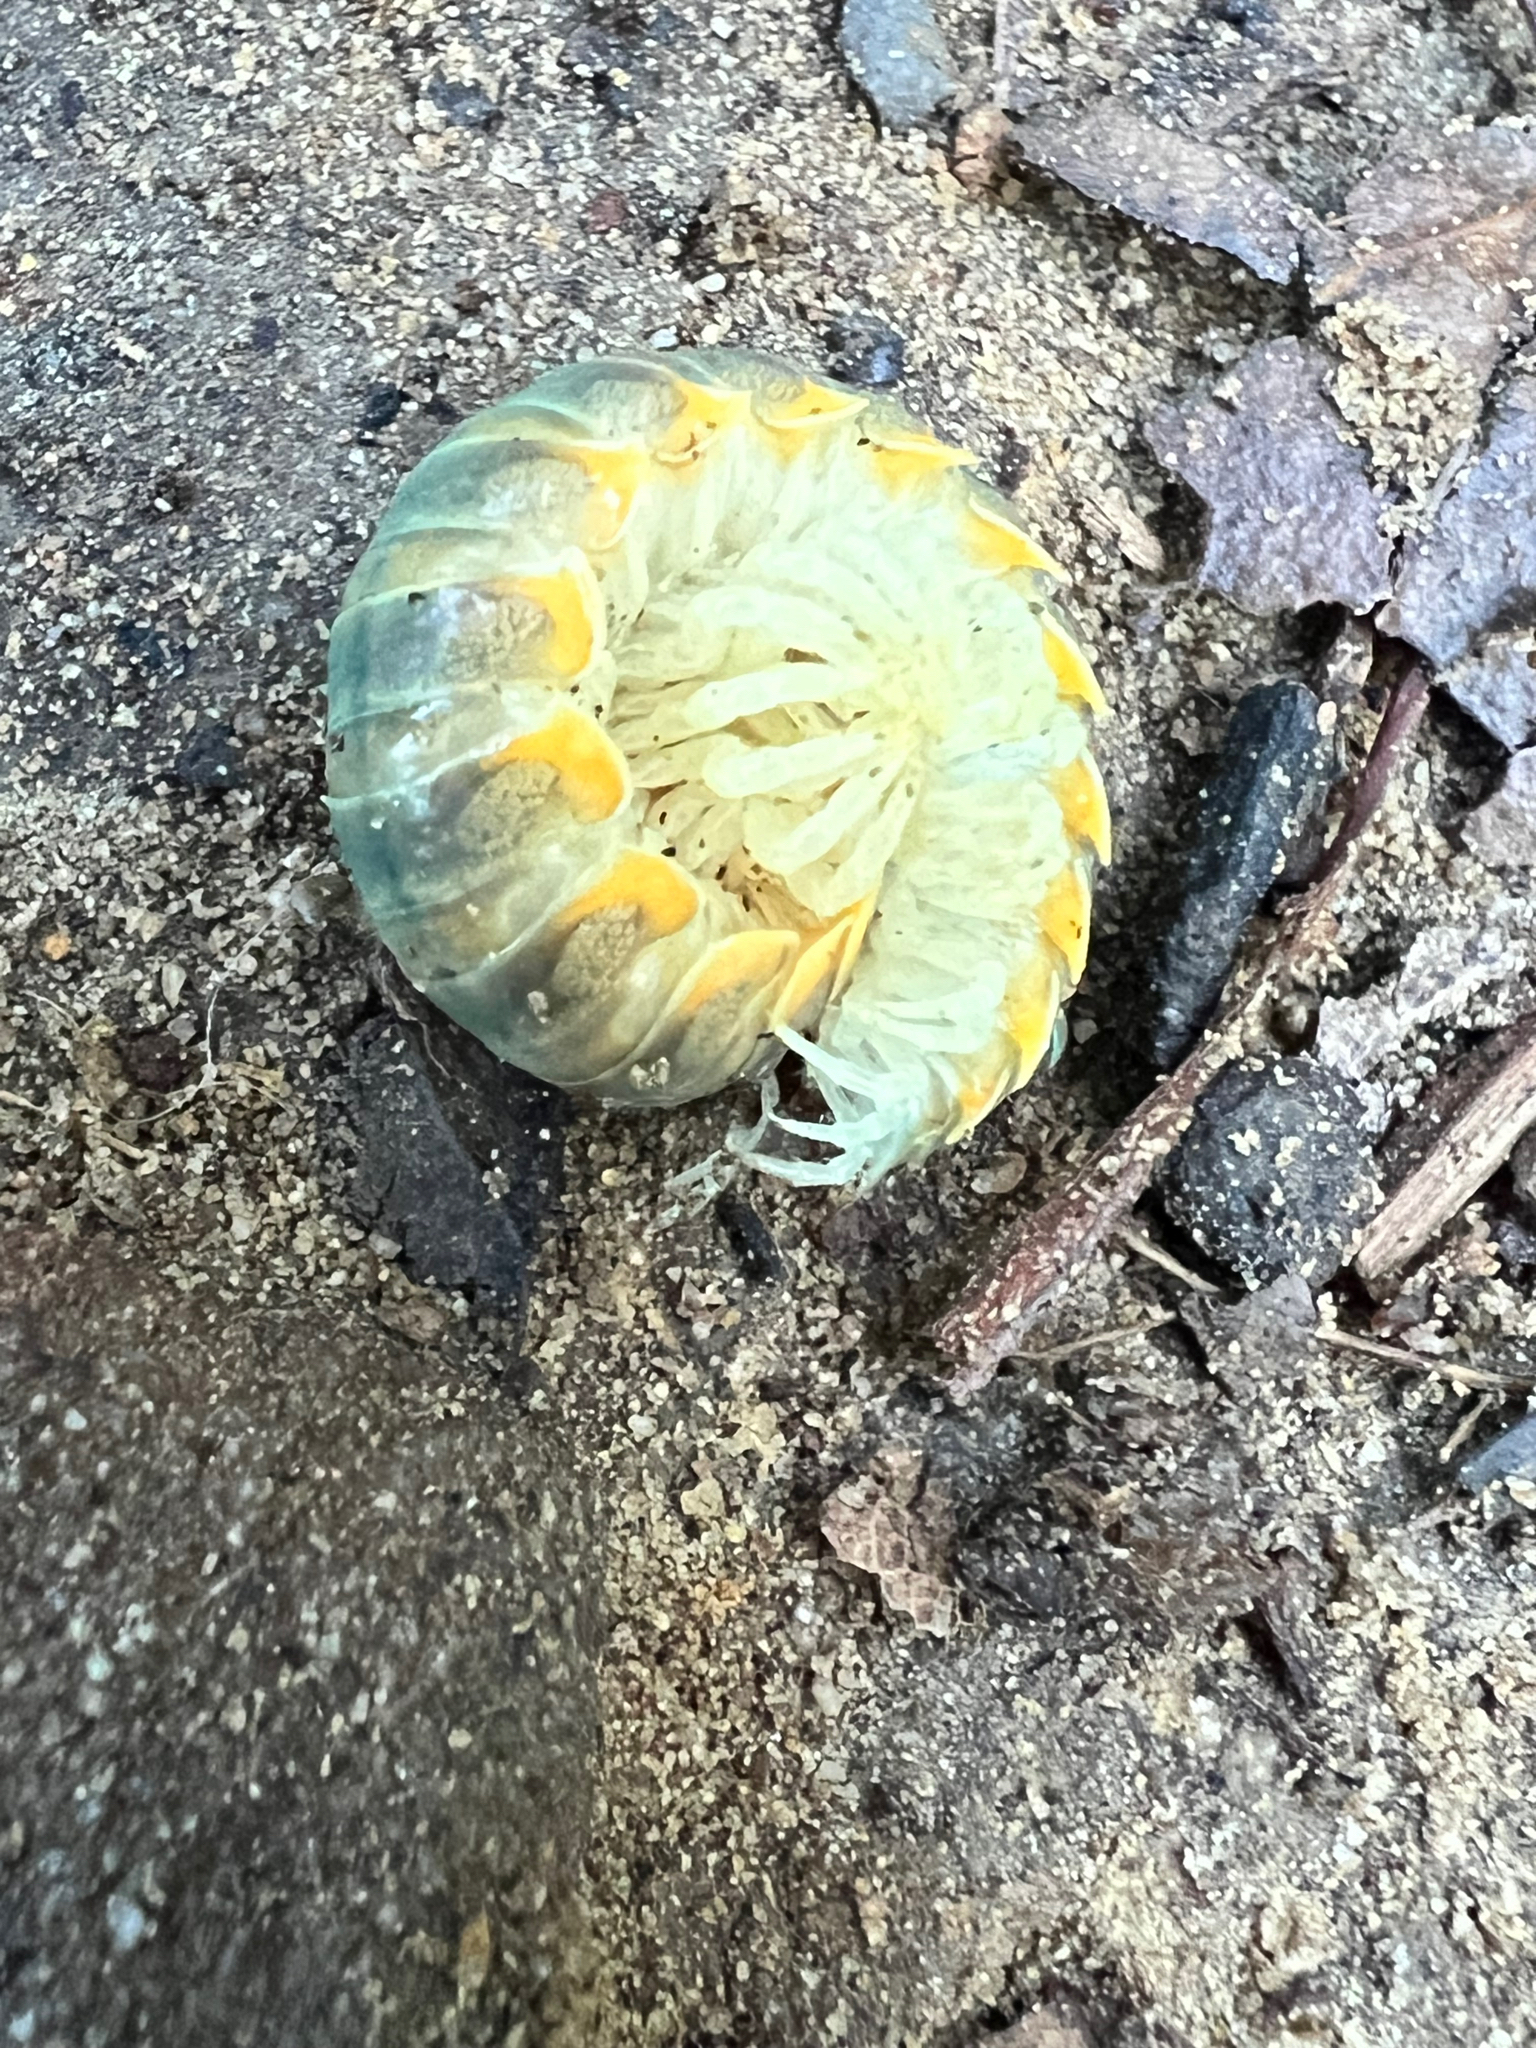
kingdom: Animalia
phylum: Arthropoda
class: Diplopoda
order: Polydesmida
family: Xystodesmidae
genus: Xystocheir
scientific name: Xystocheir dissecta
